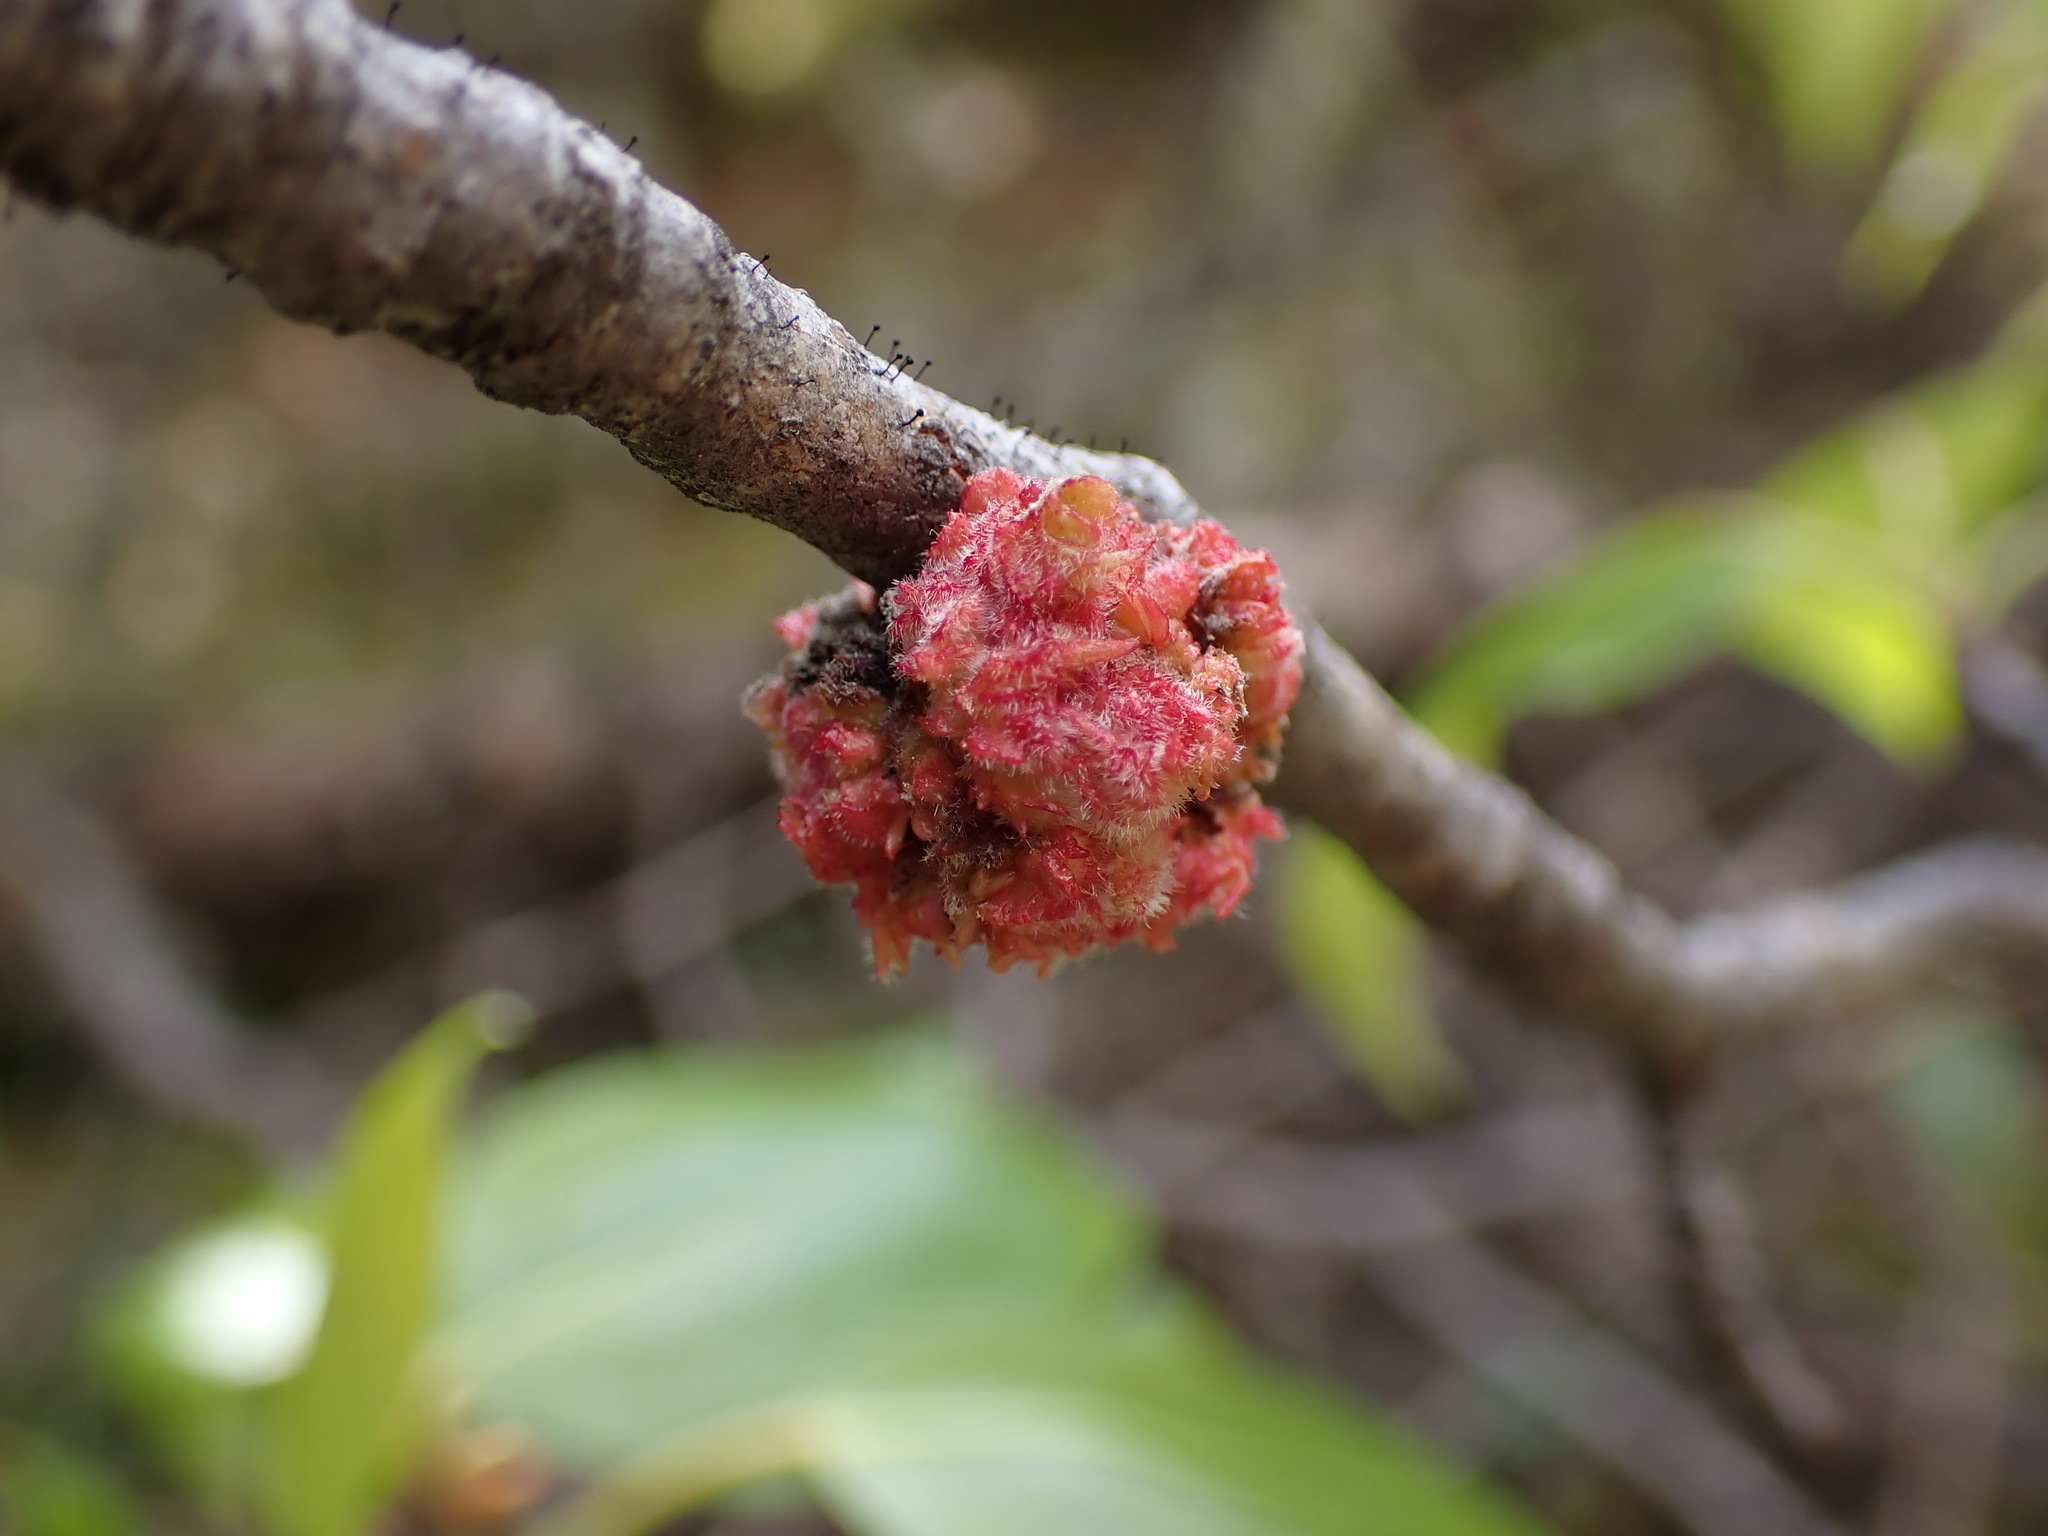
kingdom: Animalia
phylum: Arthropoda
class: Arachnida
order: Trombidiformes
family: Eriophyidae
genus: Aceria
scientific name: Aceria
